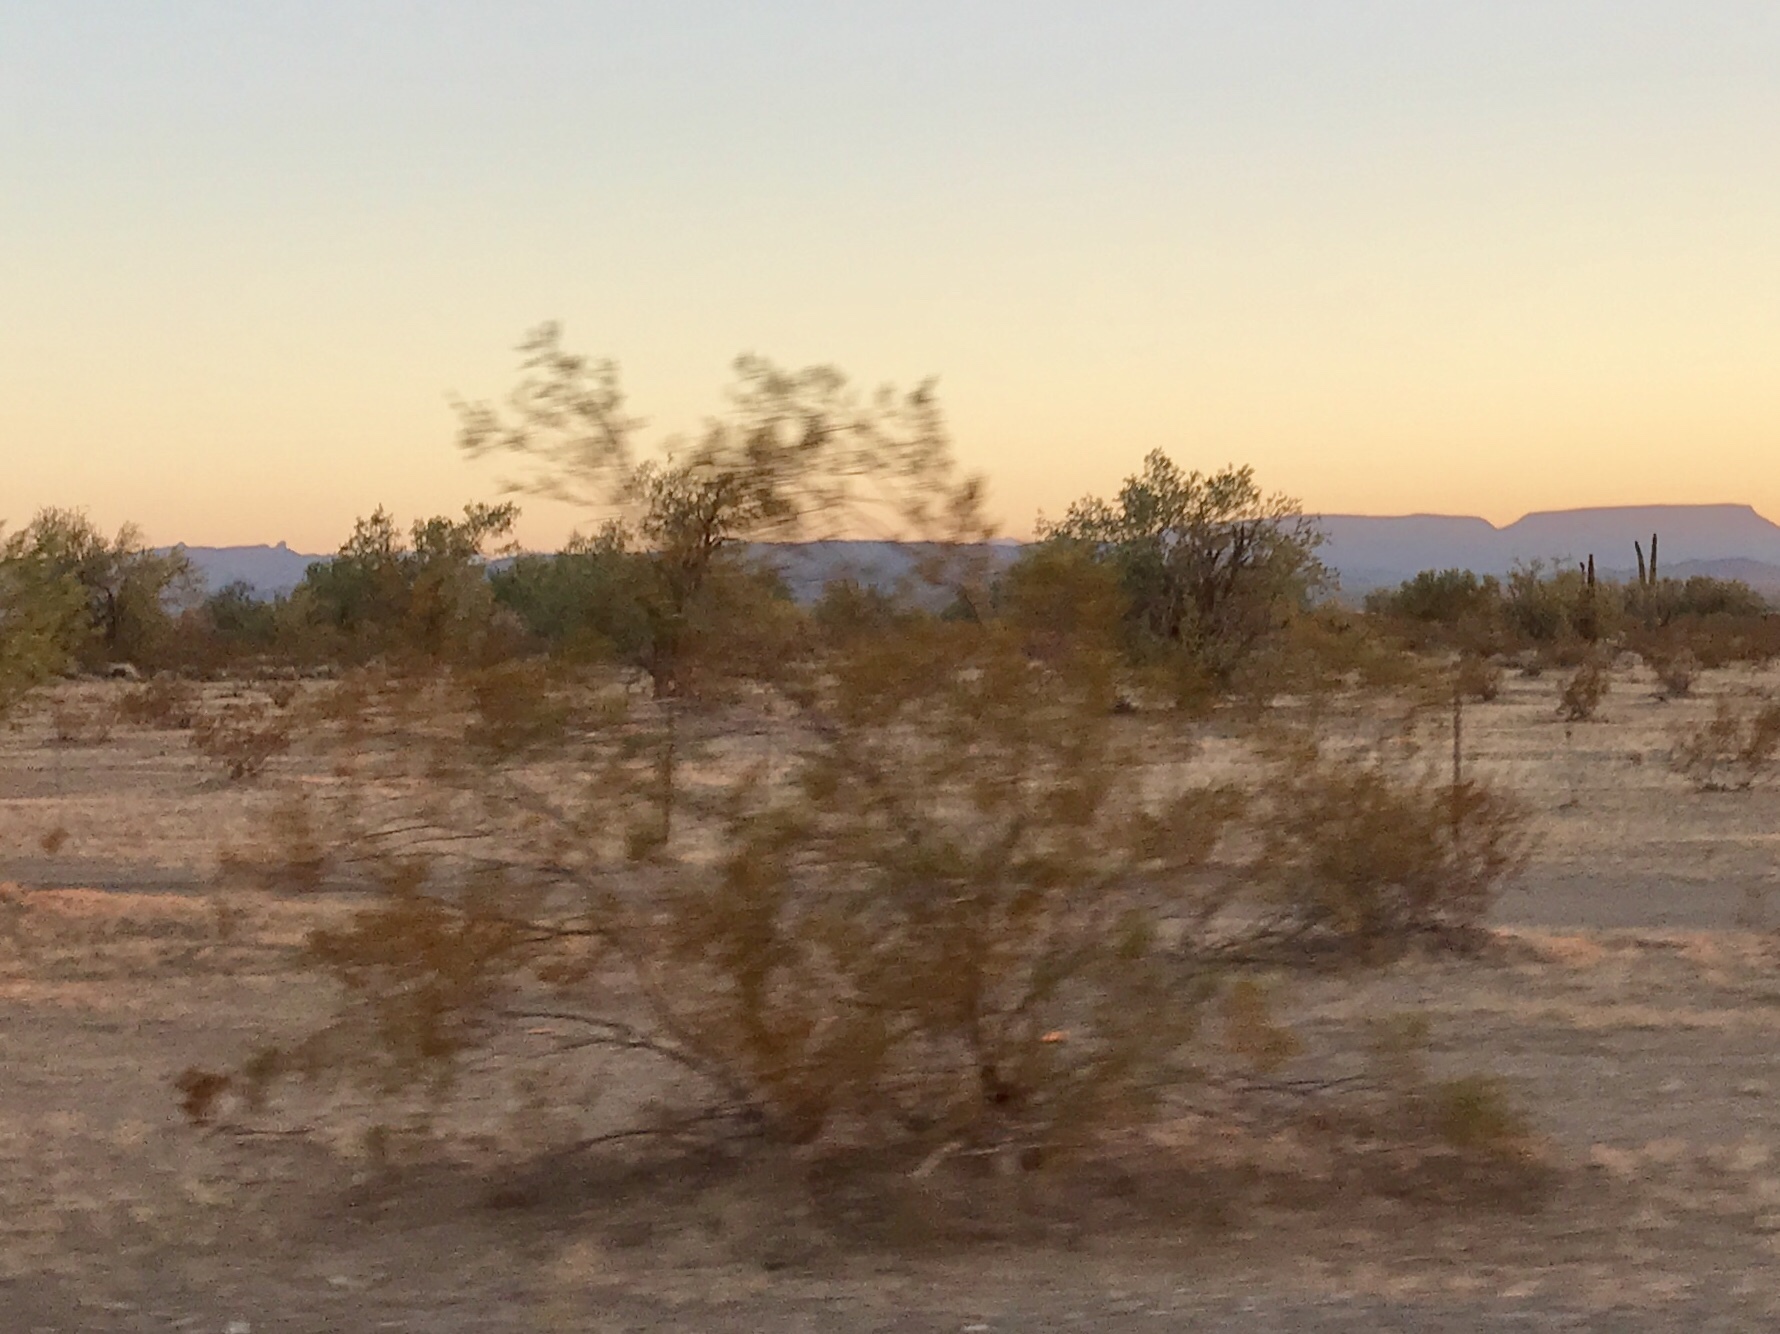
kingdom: Plantae
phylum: Tracheophyta
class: Magnoliopsida
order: Zygophyllales
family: Zygophyllaceae
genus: Larrea
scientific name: Larrea tridentata
